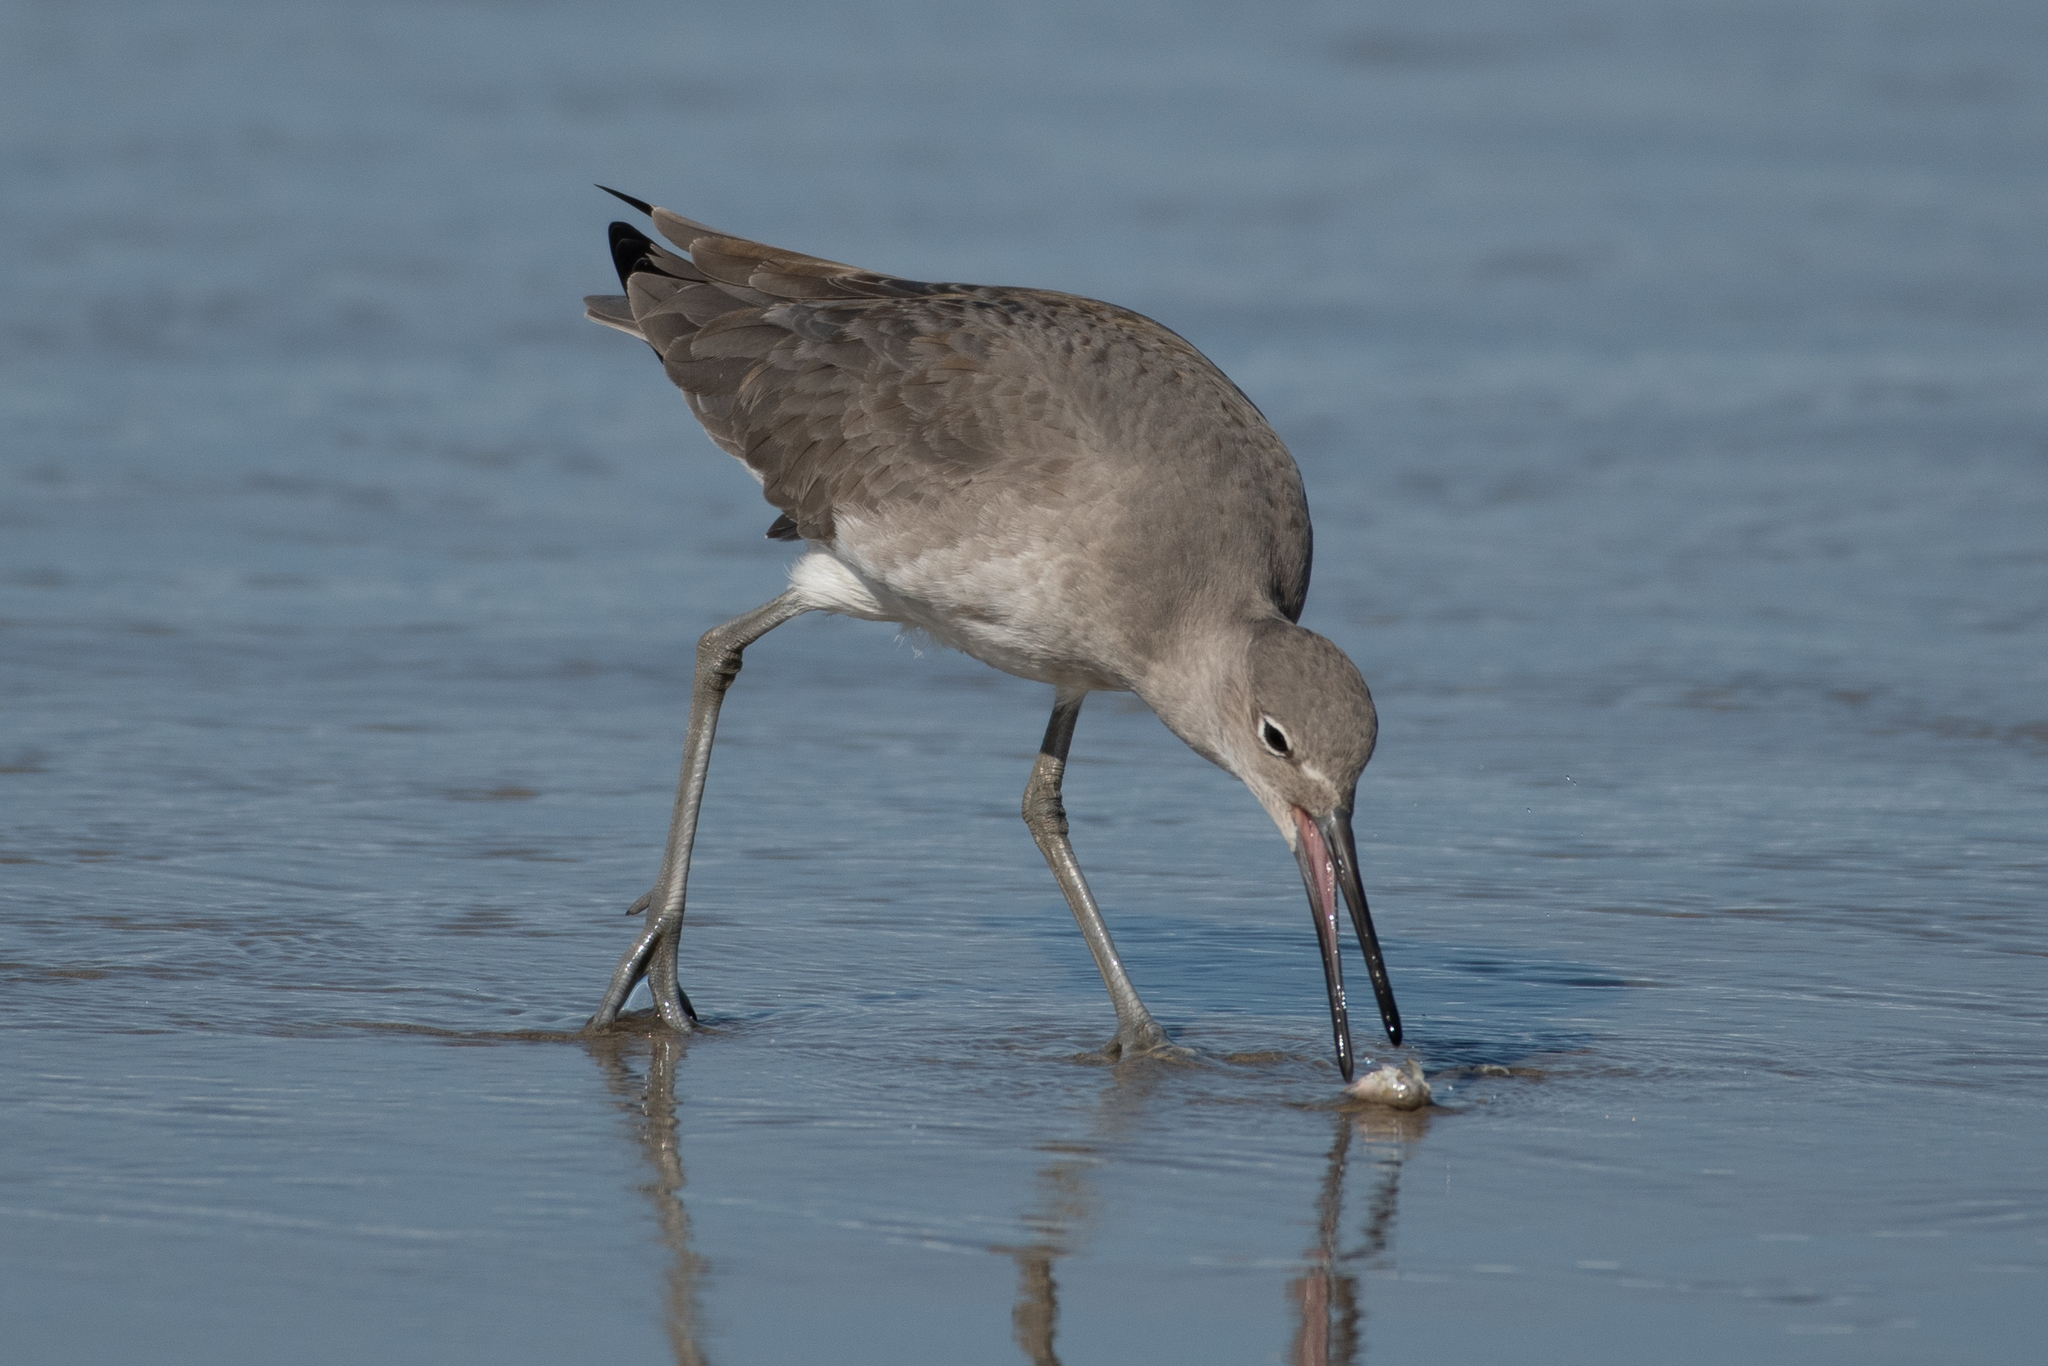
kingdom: Animalia
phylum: Chordata
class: Aves
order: Charadriiformes
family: Scolopacidae
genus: Tringa
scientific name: Tringa semipalmata
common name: Willet
